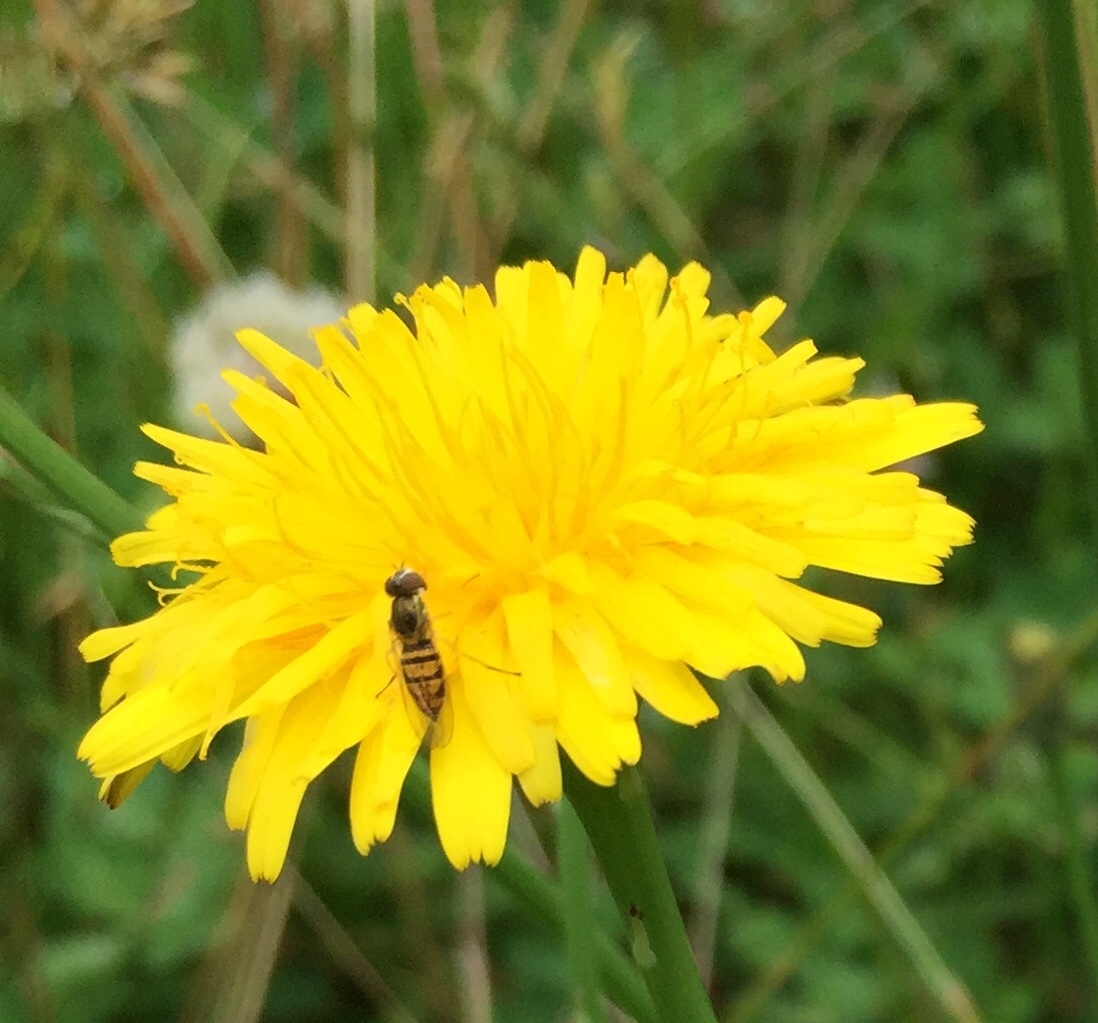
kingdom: Animalia
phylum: Arthropoda
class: Insecta
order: Diptera
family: Syrphidae
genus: Toxomerus
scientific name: Toxomerus marginatus
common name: Syrphid fly
